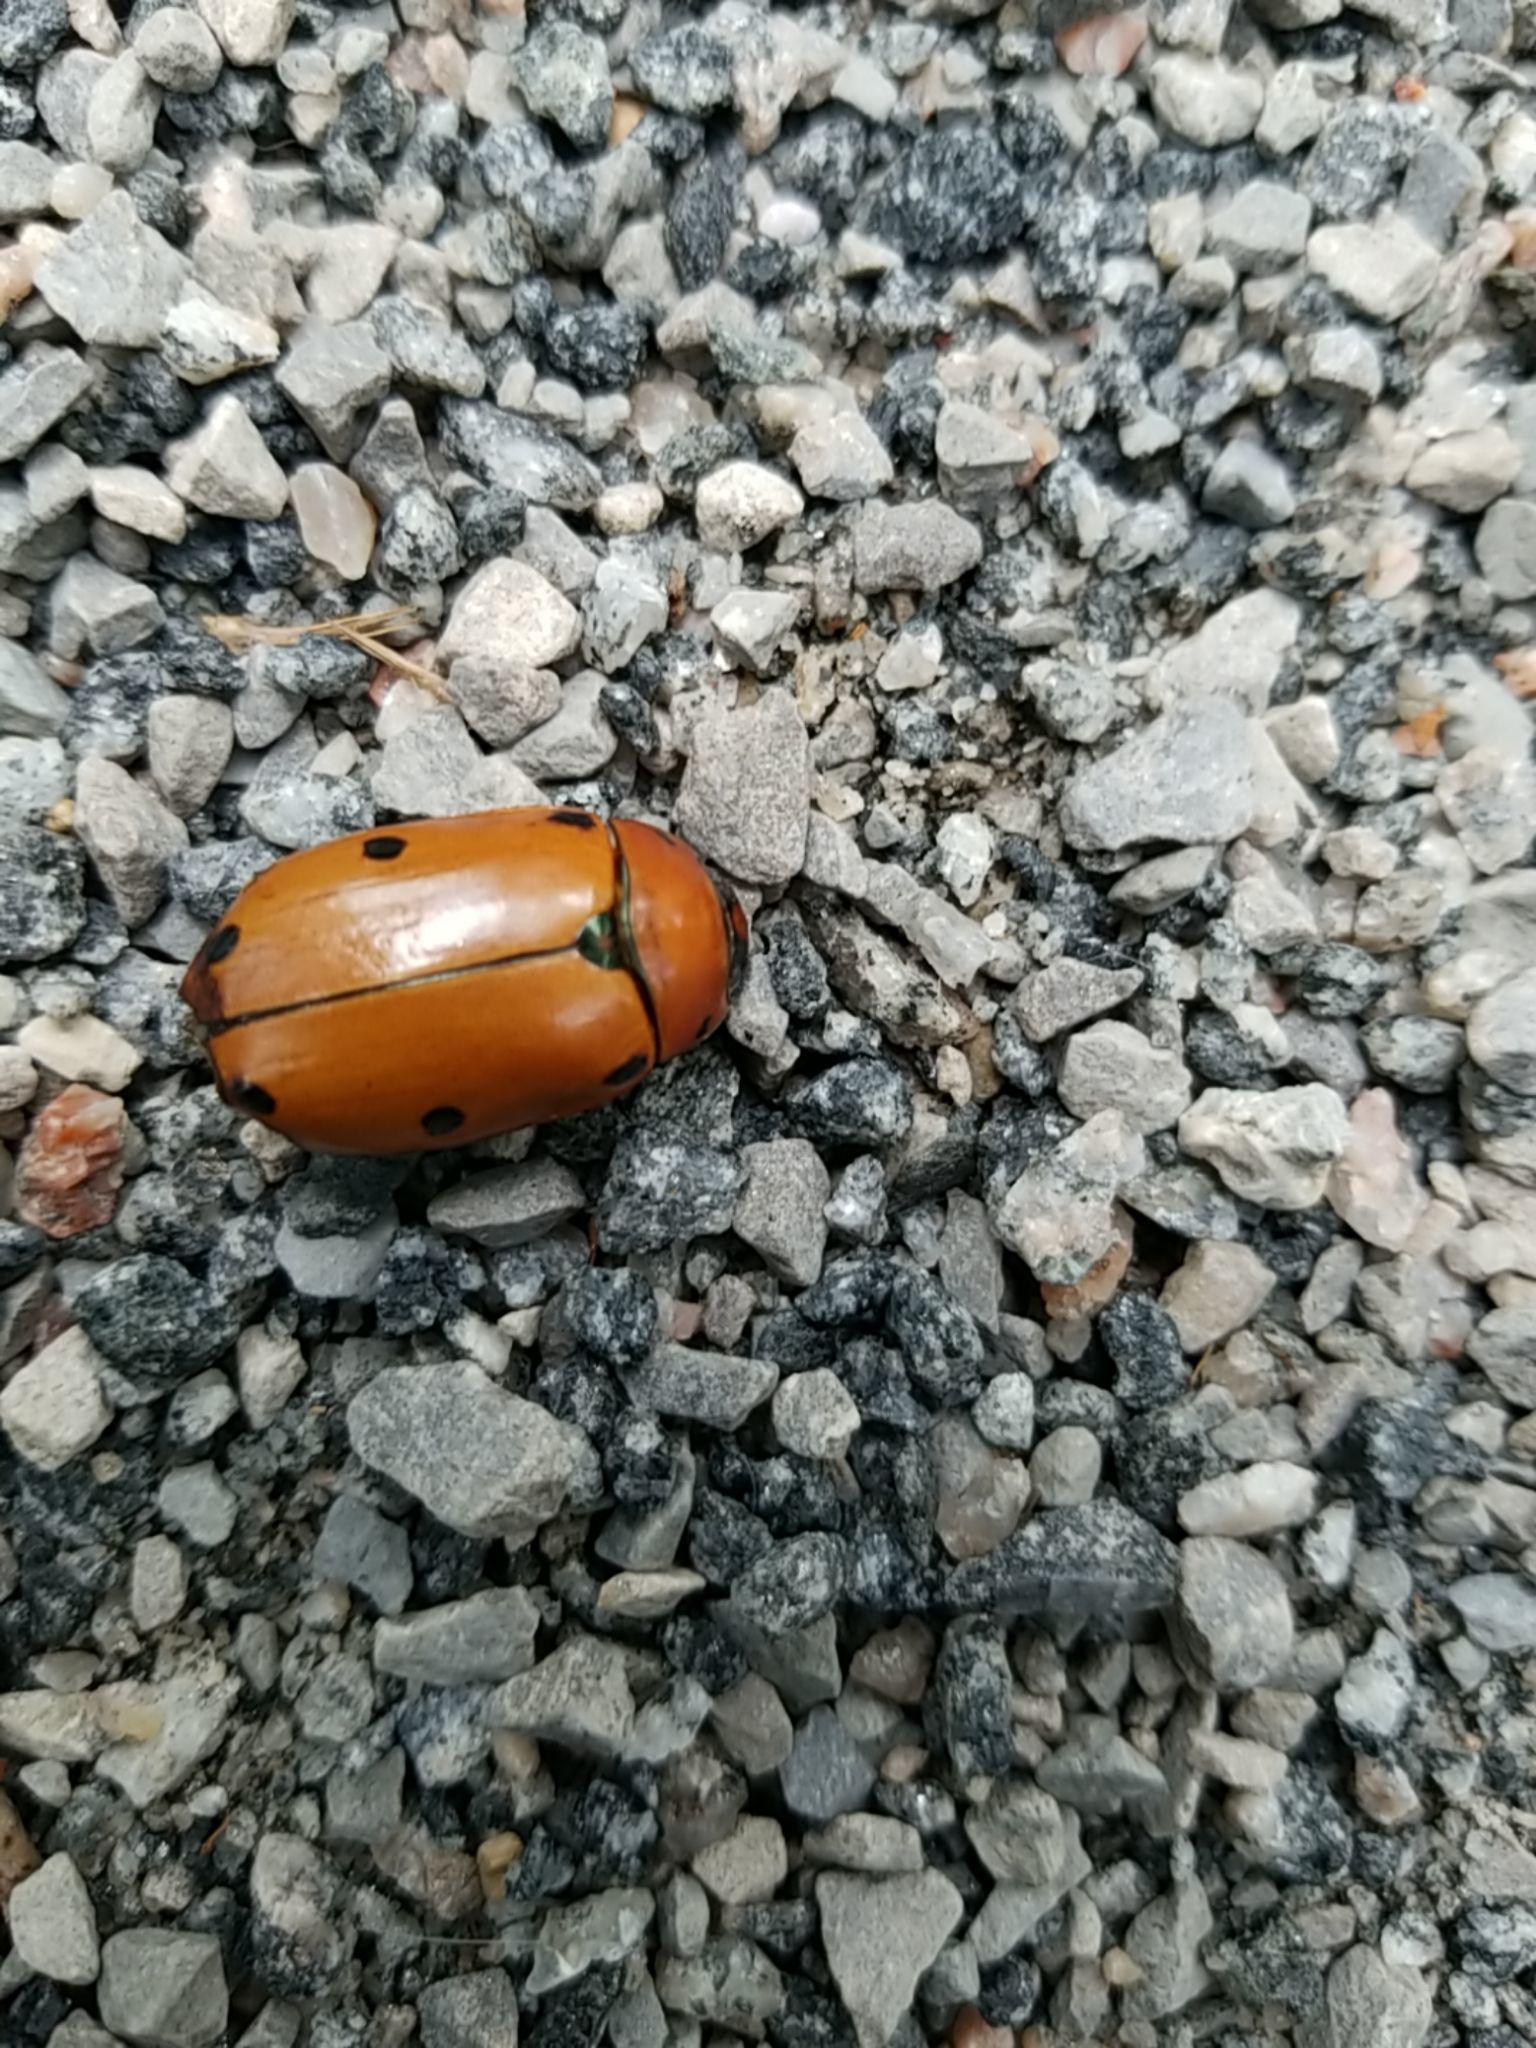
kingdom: Animalia
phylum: Arthropoda
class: Insecta
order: Coleoptera
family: Scarabaeidae
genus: Pelidnota
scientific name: Pelidnota punctata
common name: Grapevine beetle
